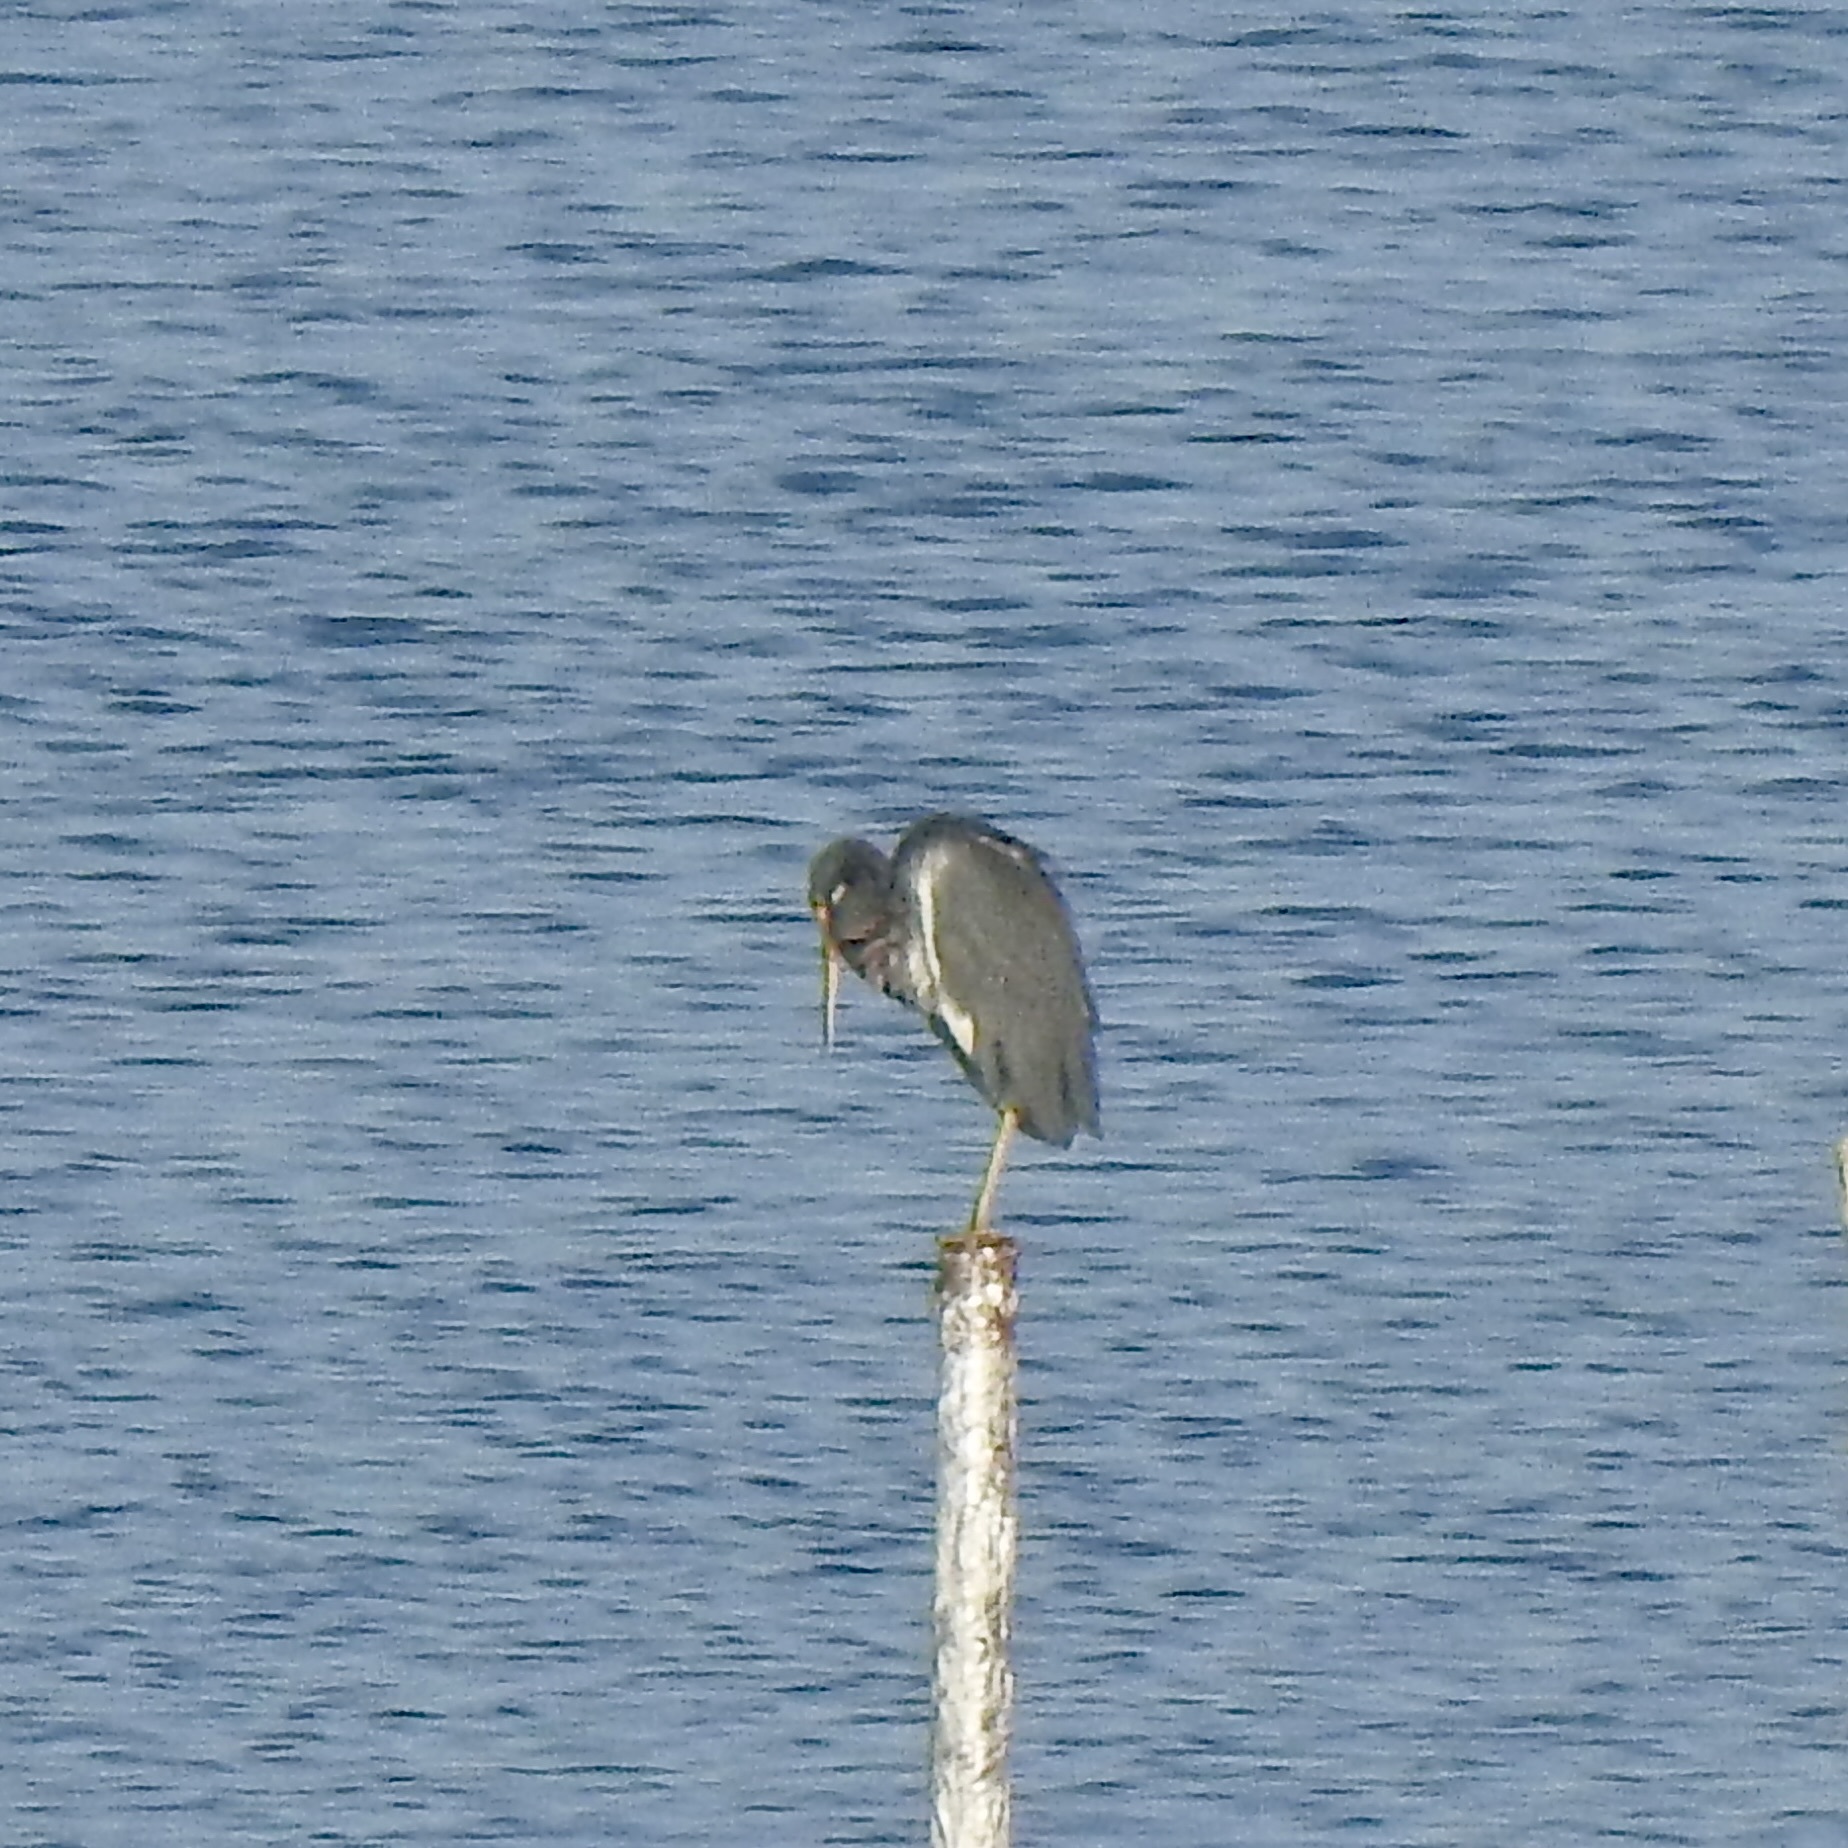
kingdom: Animalia
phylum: Chordata
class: Aves
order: Pelecaniformes
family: Ardeidae
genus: Egretta
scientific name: Egretta tricolor
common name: Tricolored heron
